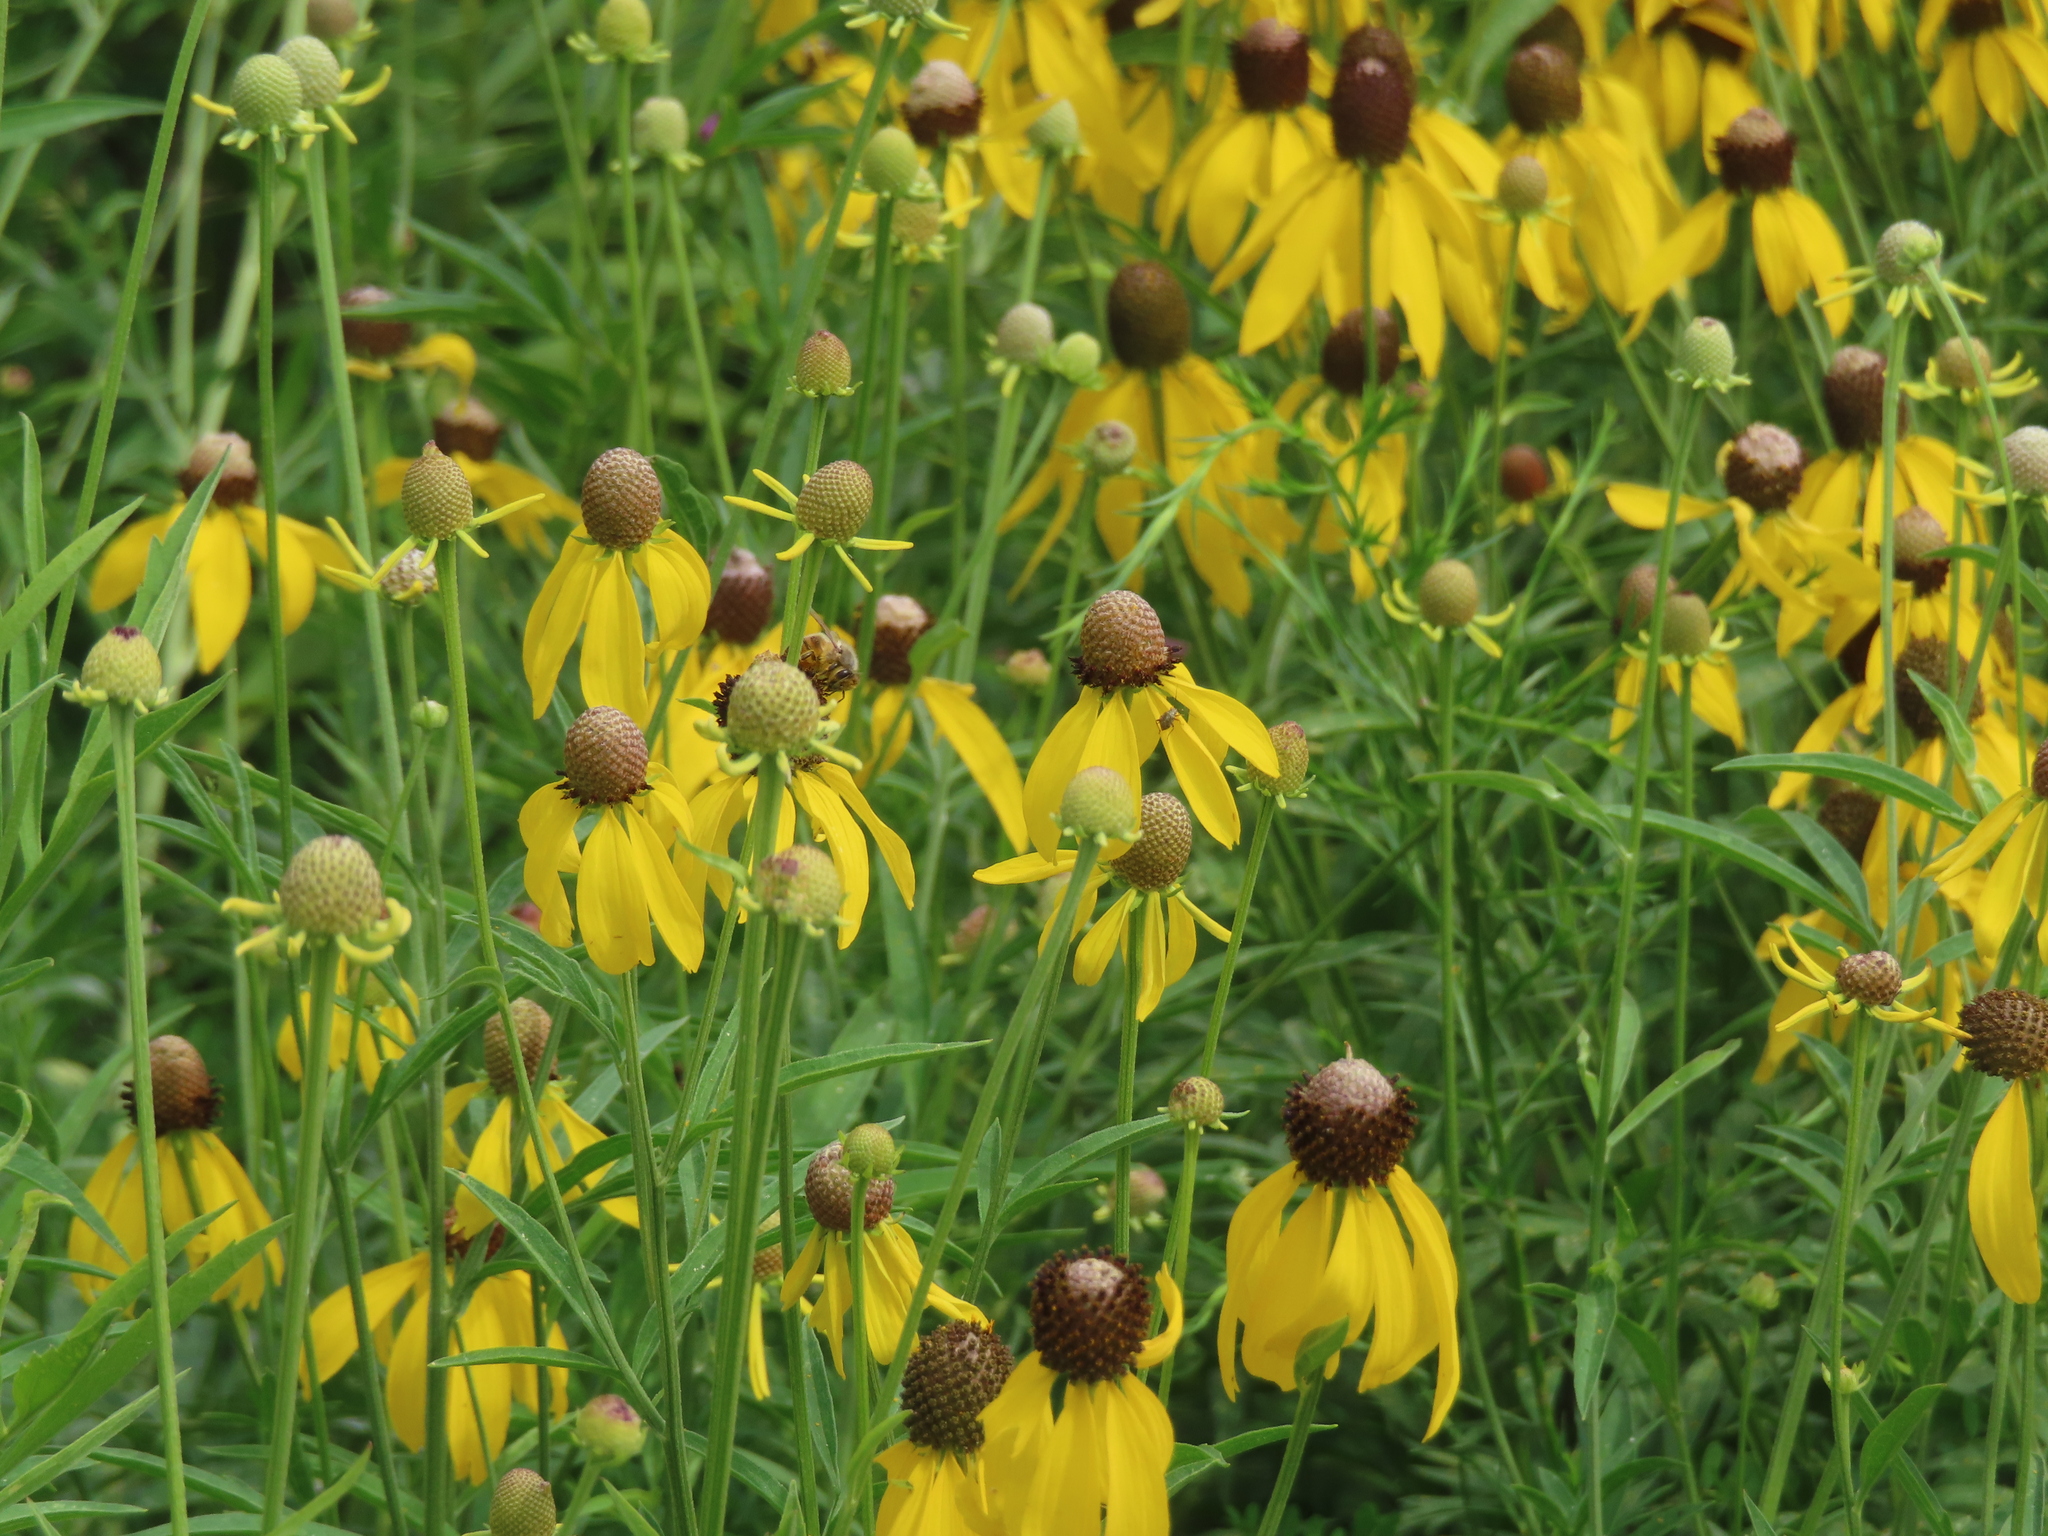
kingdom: Plantae
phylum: Tracheophyta
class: Magnoliopsida
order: Asterales
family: Asteraceae
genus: Ratibida
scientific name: Ratibida pinnata
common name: Drooping prairie-coneflower
